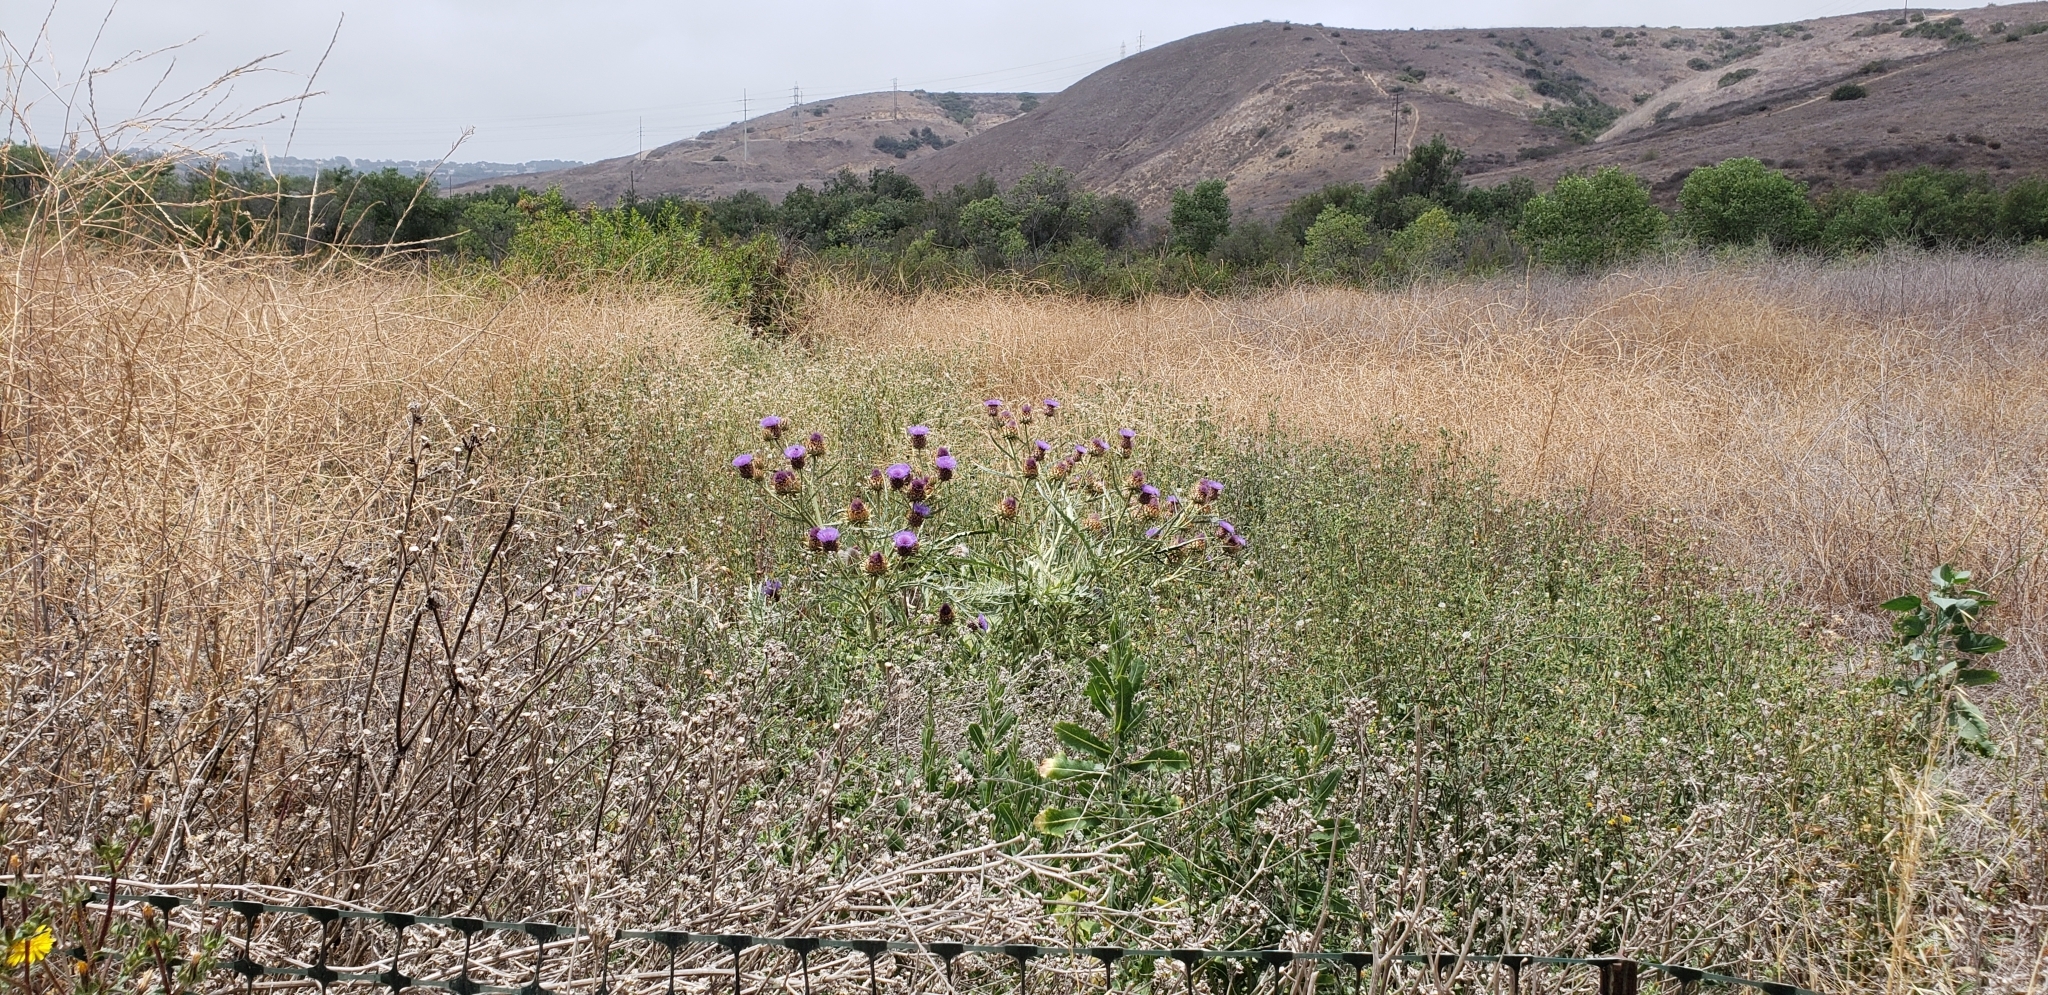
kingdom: Plantae
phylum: Tracheophyta
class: Magnoliopsida
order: Asterales
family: Asteraceae
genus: Cynara
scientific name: Cynara cardunculus
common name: Globe artichoke
